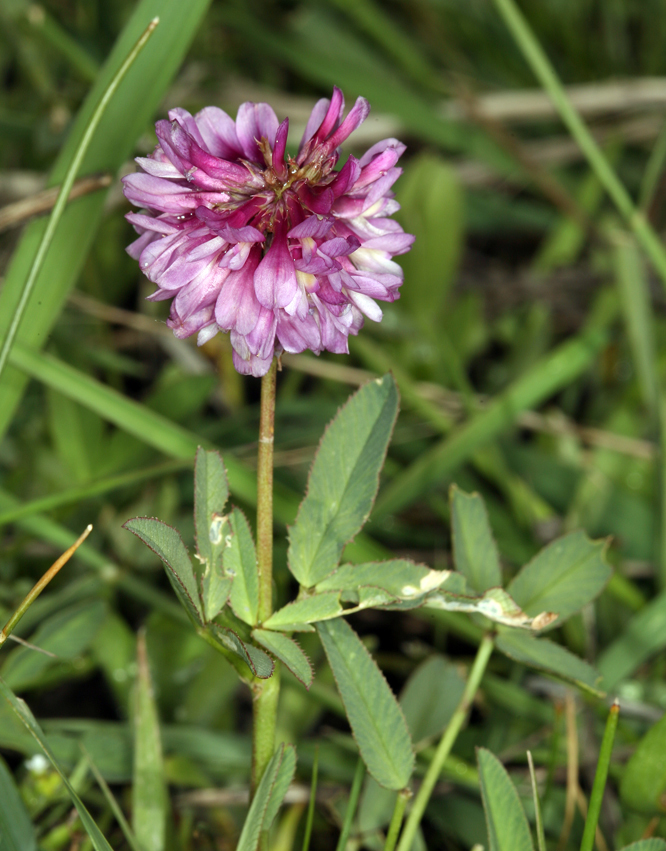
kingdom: Plantae
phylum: Tracheophyta
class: Magnoliopsida
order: Fabales
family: Fabaceae
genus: Trifolium
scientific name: Trifolium beckwithii
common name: Beckwith's clover
